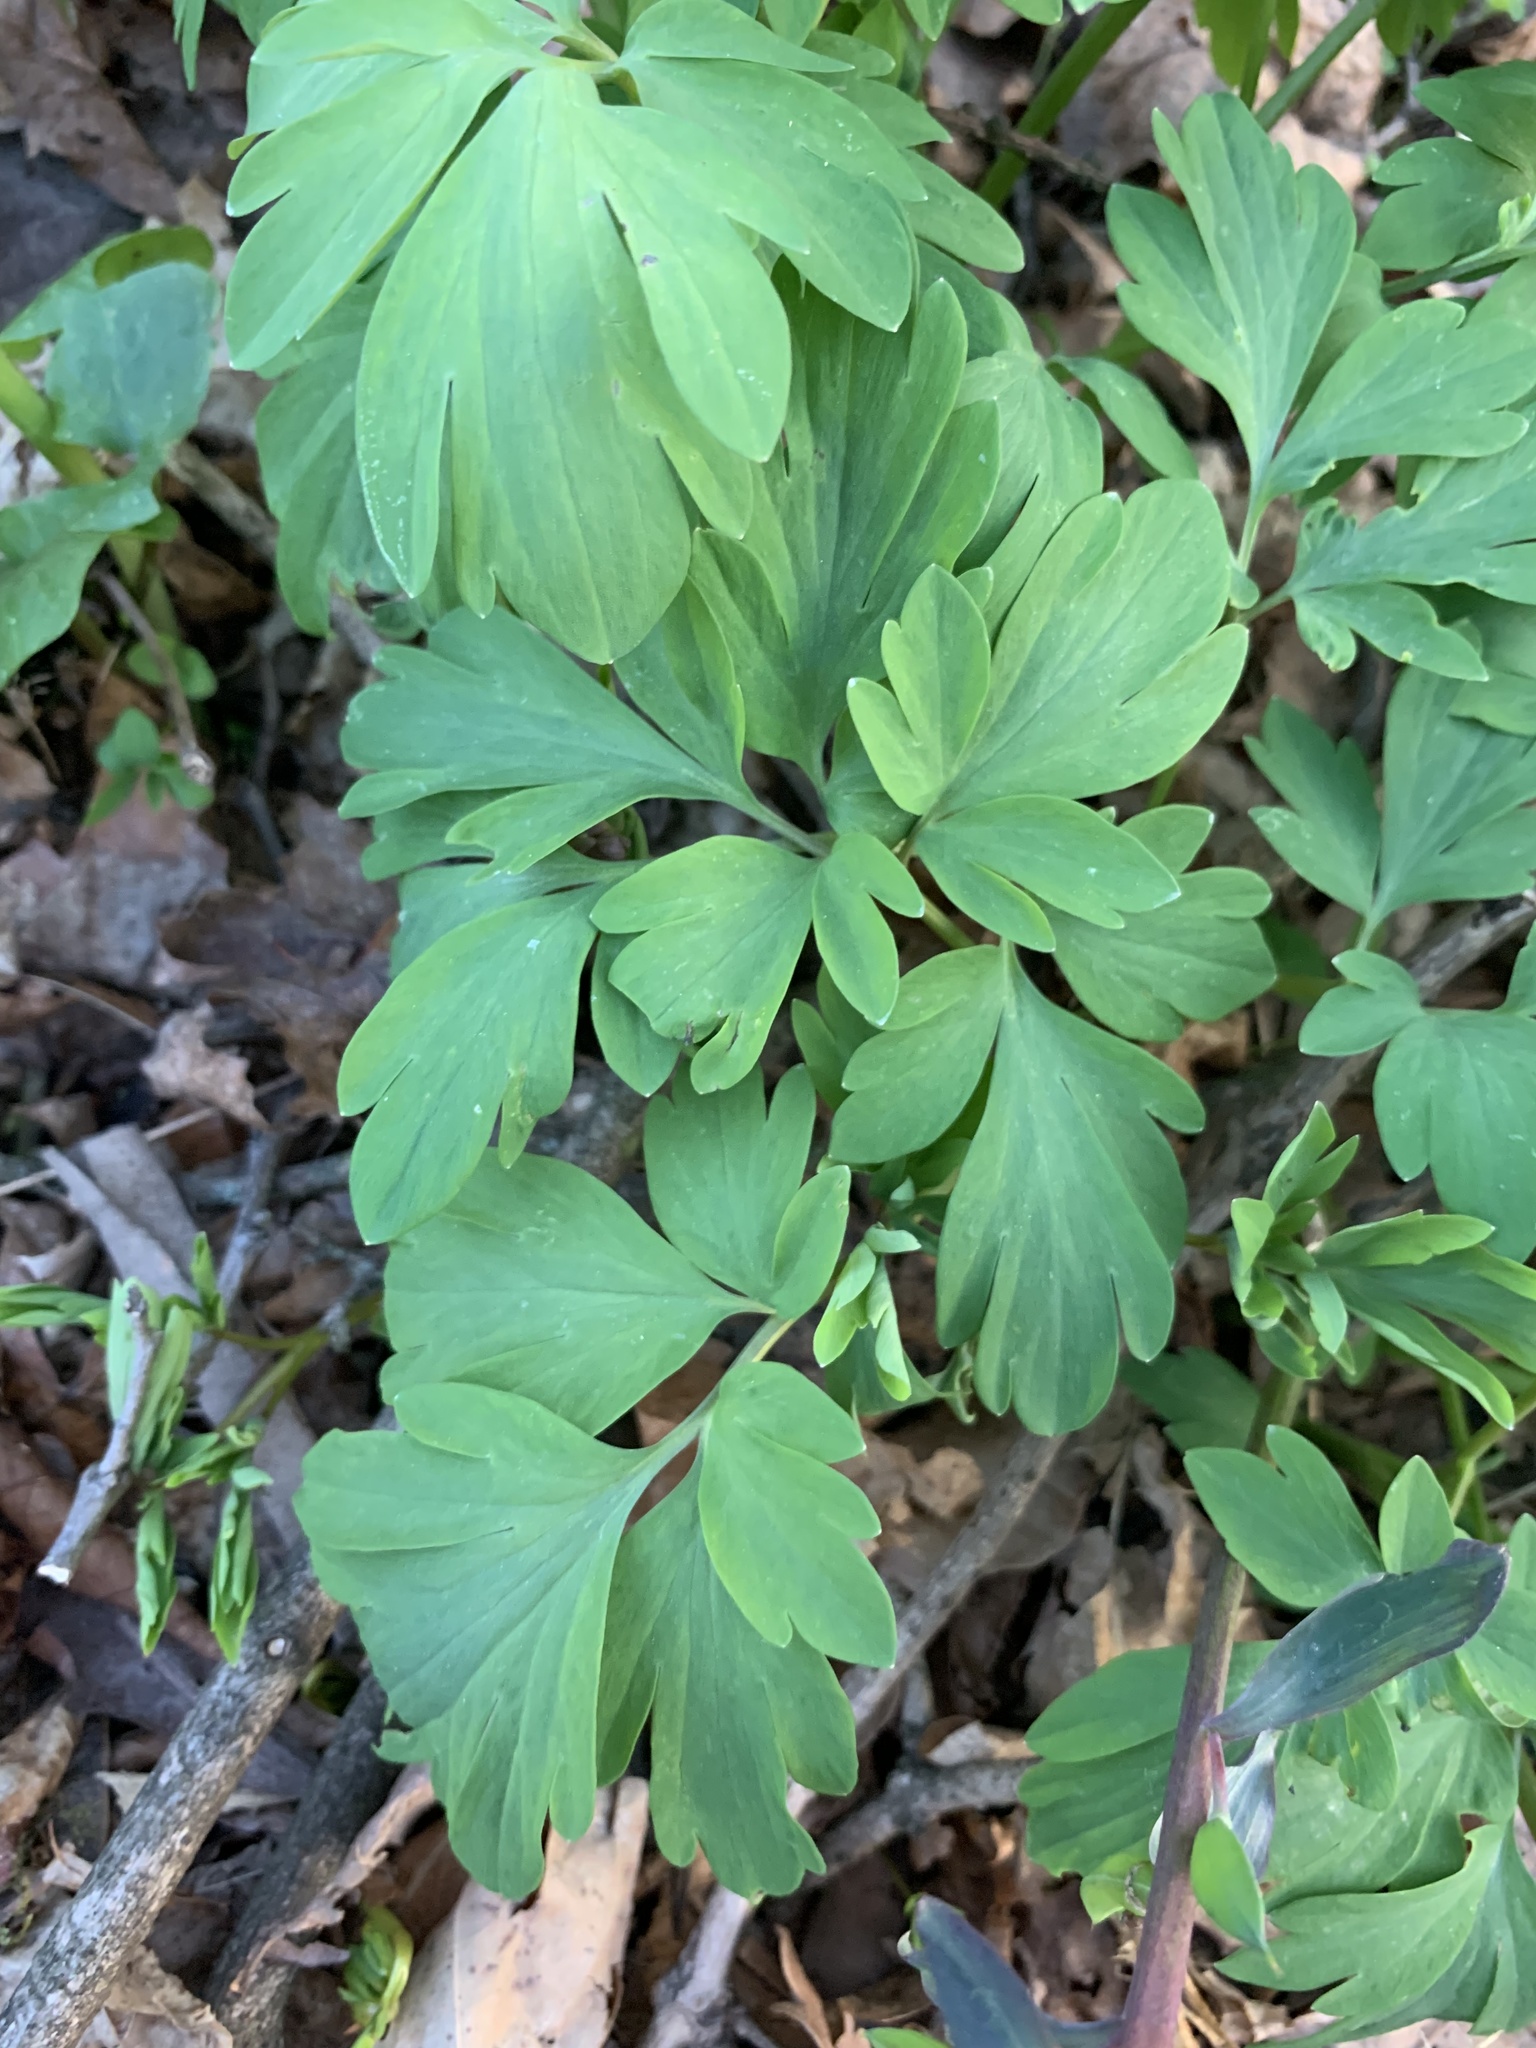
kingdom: Plantae
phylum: Tracheophyta
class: Magnoliopsida
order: Ranunculales
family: Papaveraceae
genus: Corydalis
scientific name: Corydalis cava
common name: Hollowroot
